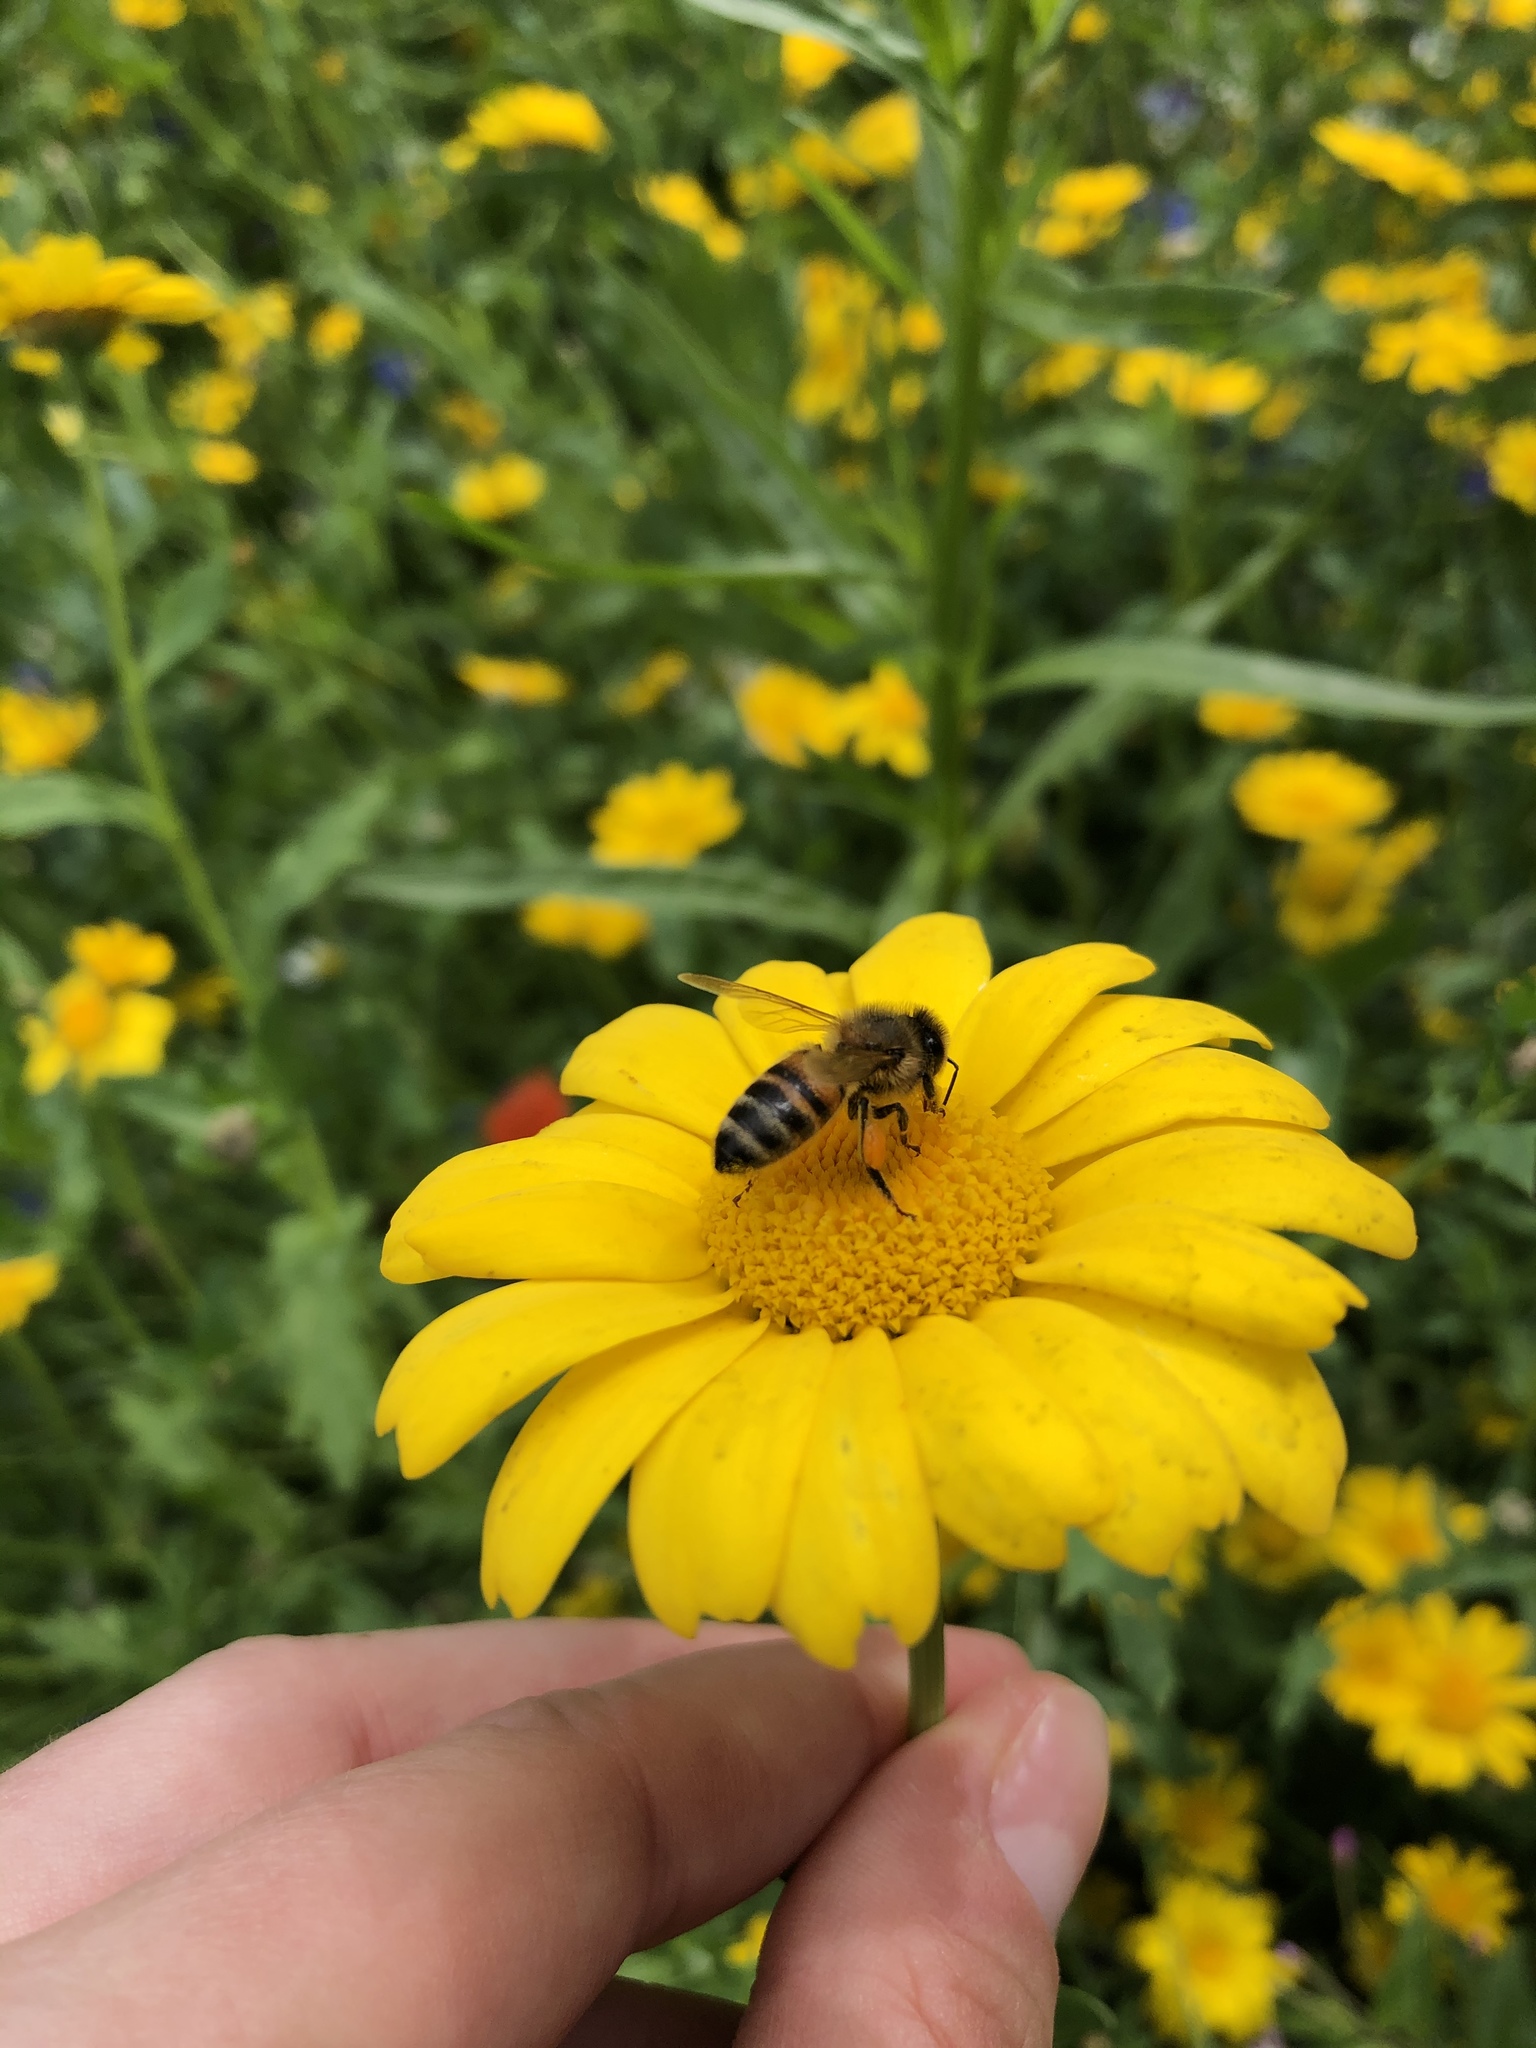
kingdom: Animalia
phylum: Arthropoda
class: Insecta
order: Hymenoptera
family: Apidae
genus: Apis
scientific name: Apis mellifera
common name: Honey bee
